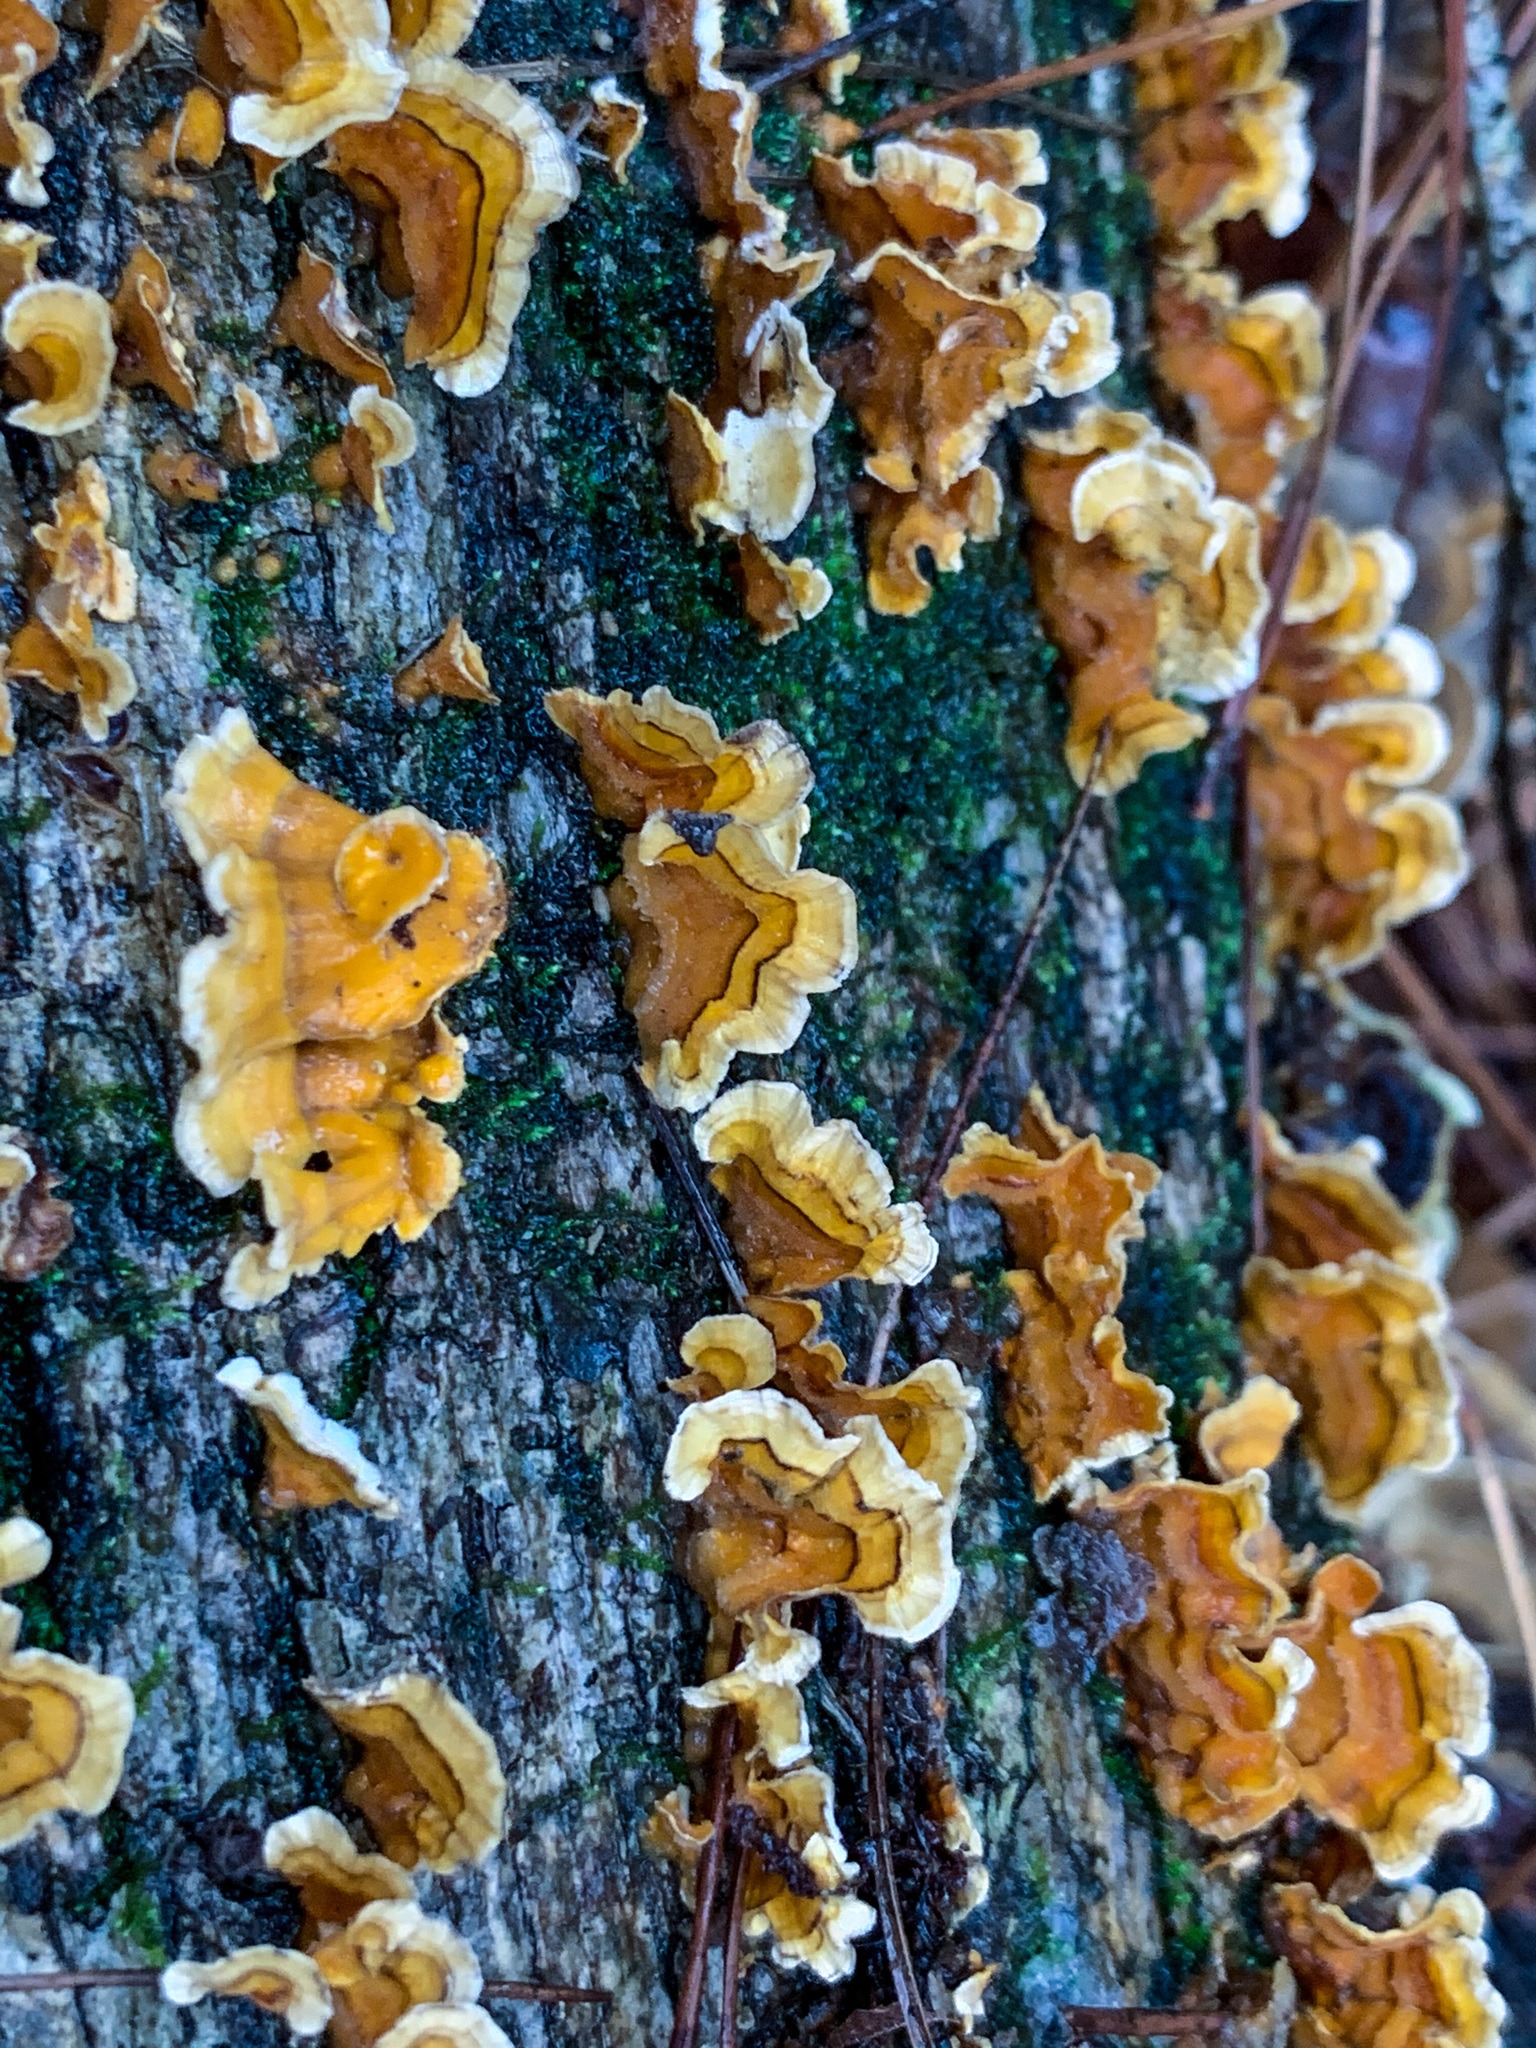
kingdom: Fungi
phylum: Basidiomycota
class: Agaricomycetes
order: Russulales
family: Stereaceae
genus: Stereum
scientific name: Stereum complicatum
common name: Crowded parchment
